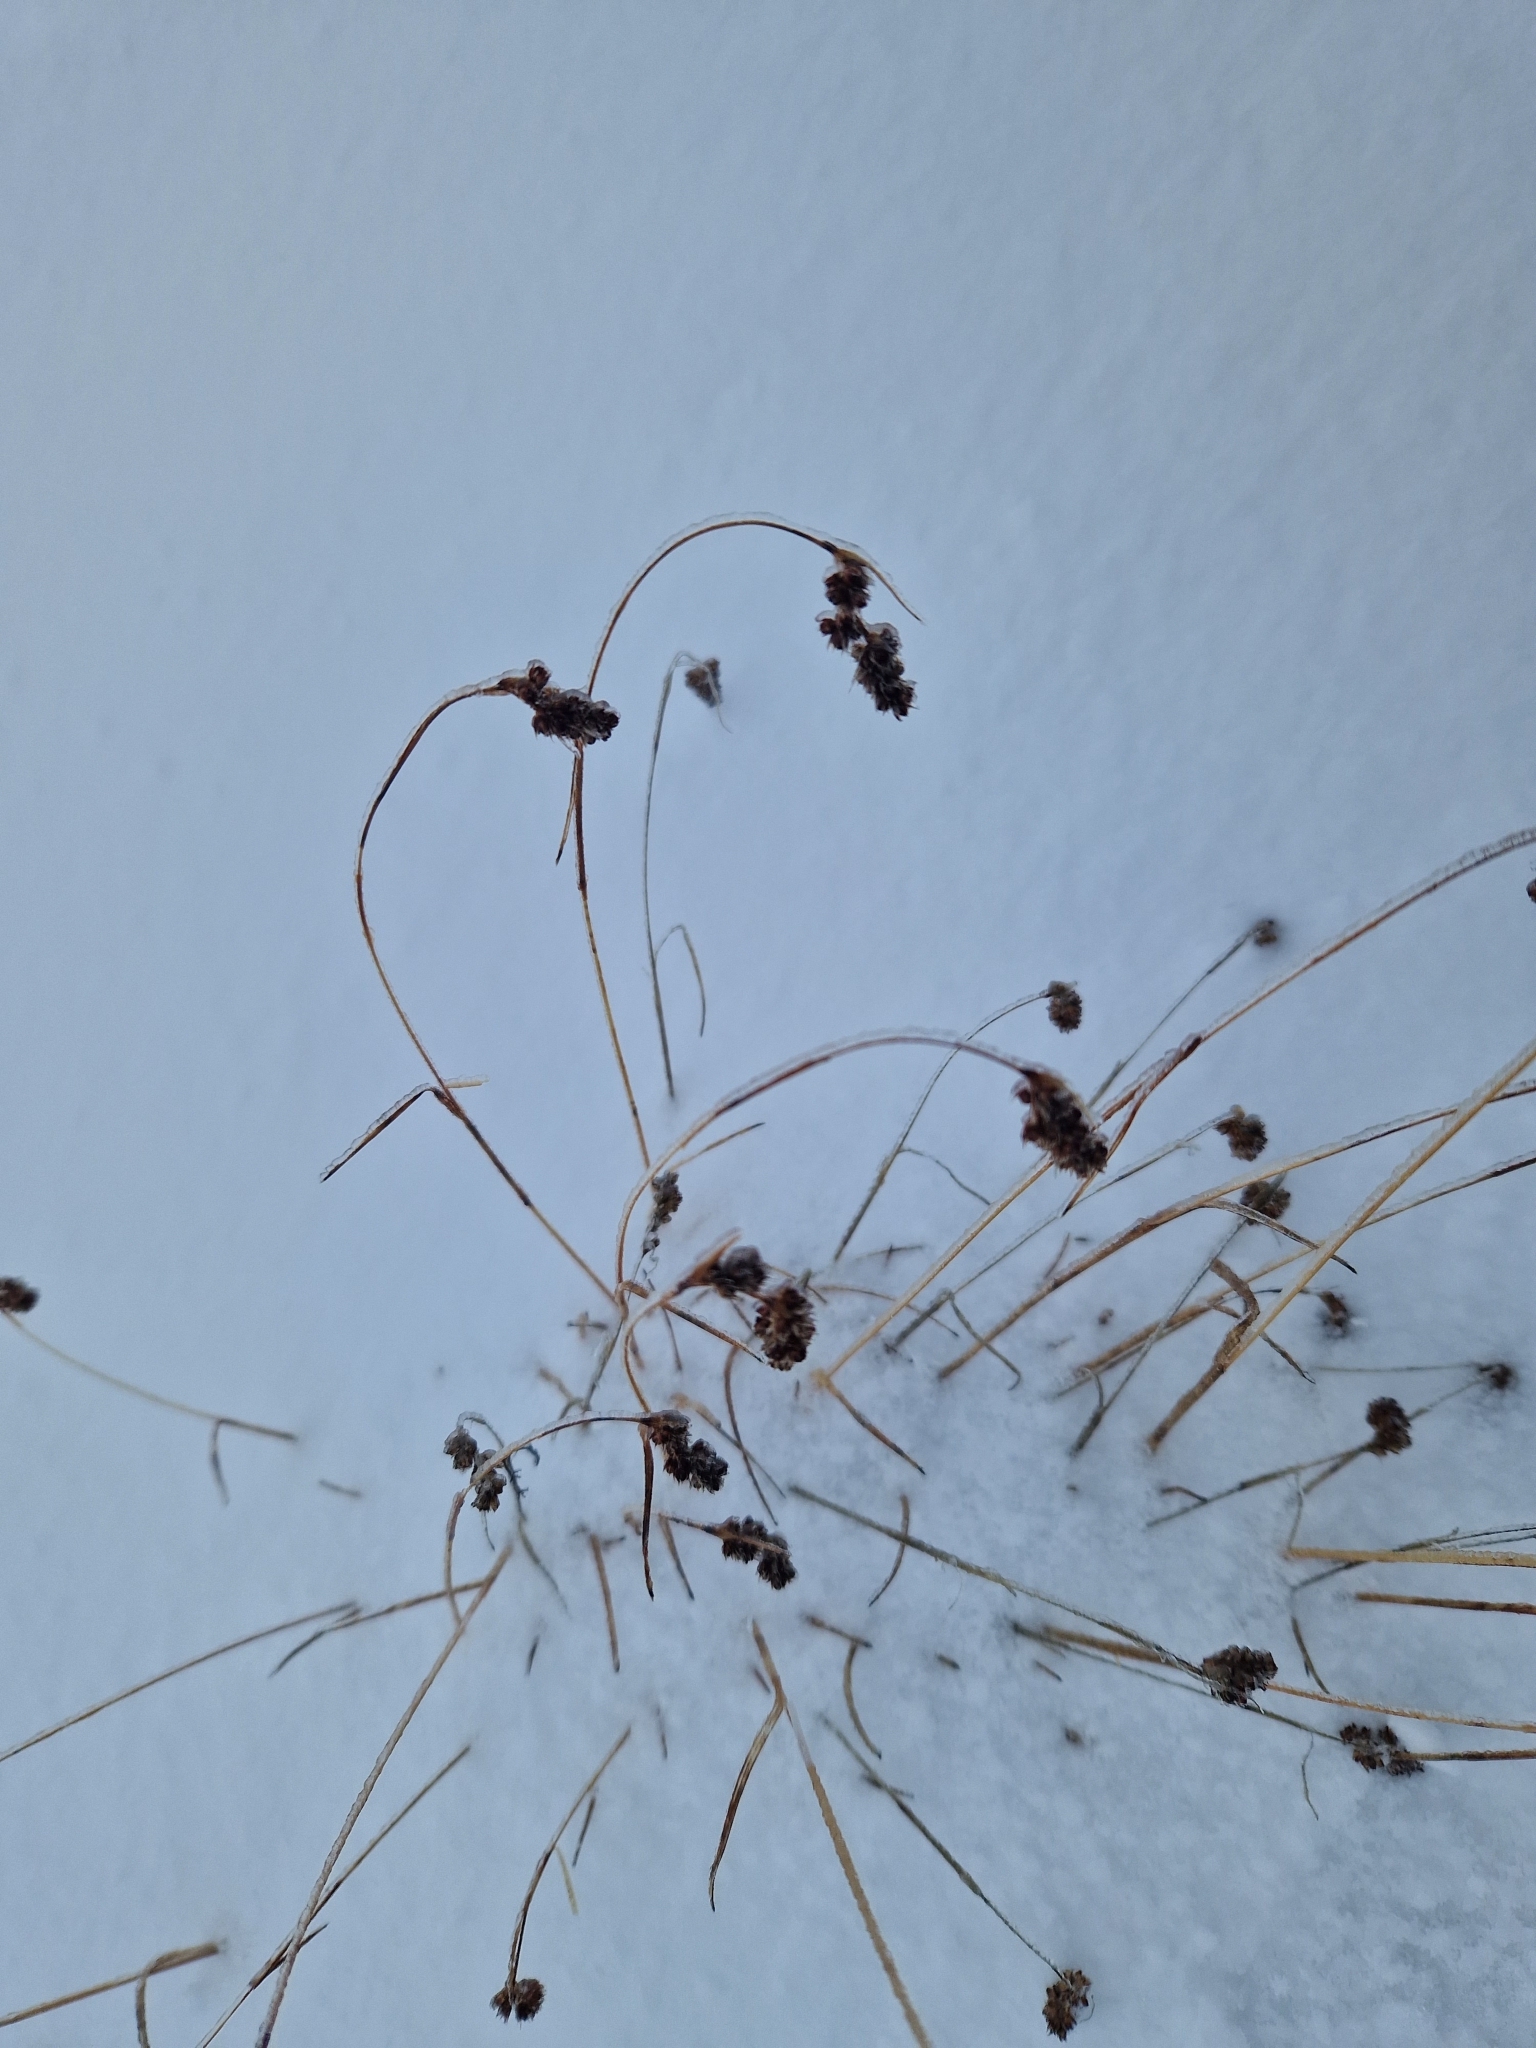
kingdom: Plantae
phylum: Tracheophyta
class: Liliopsida
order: Poales
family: Juncaceae
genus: Luzula
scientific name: Luzula spicata
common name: Spiked wood-rush
